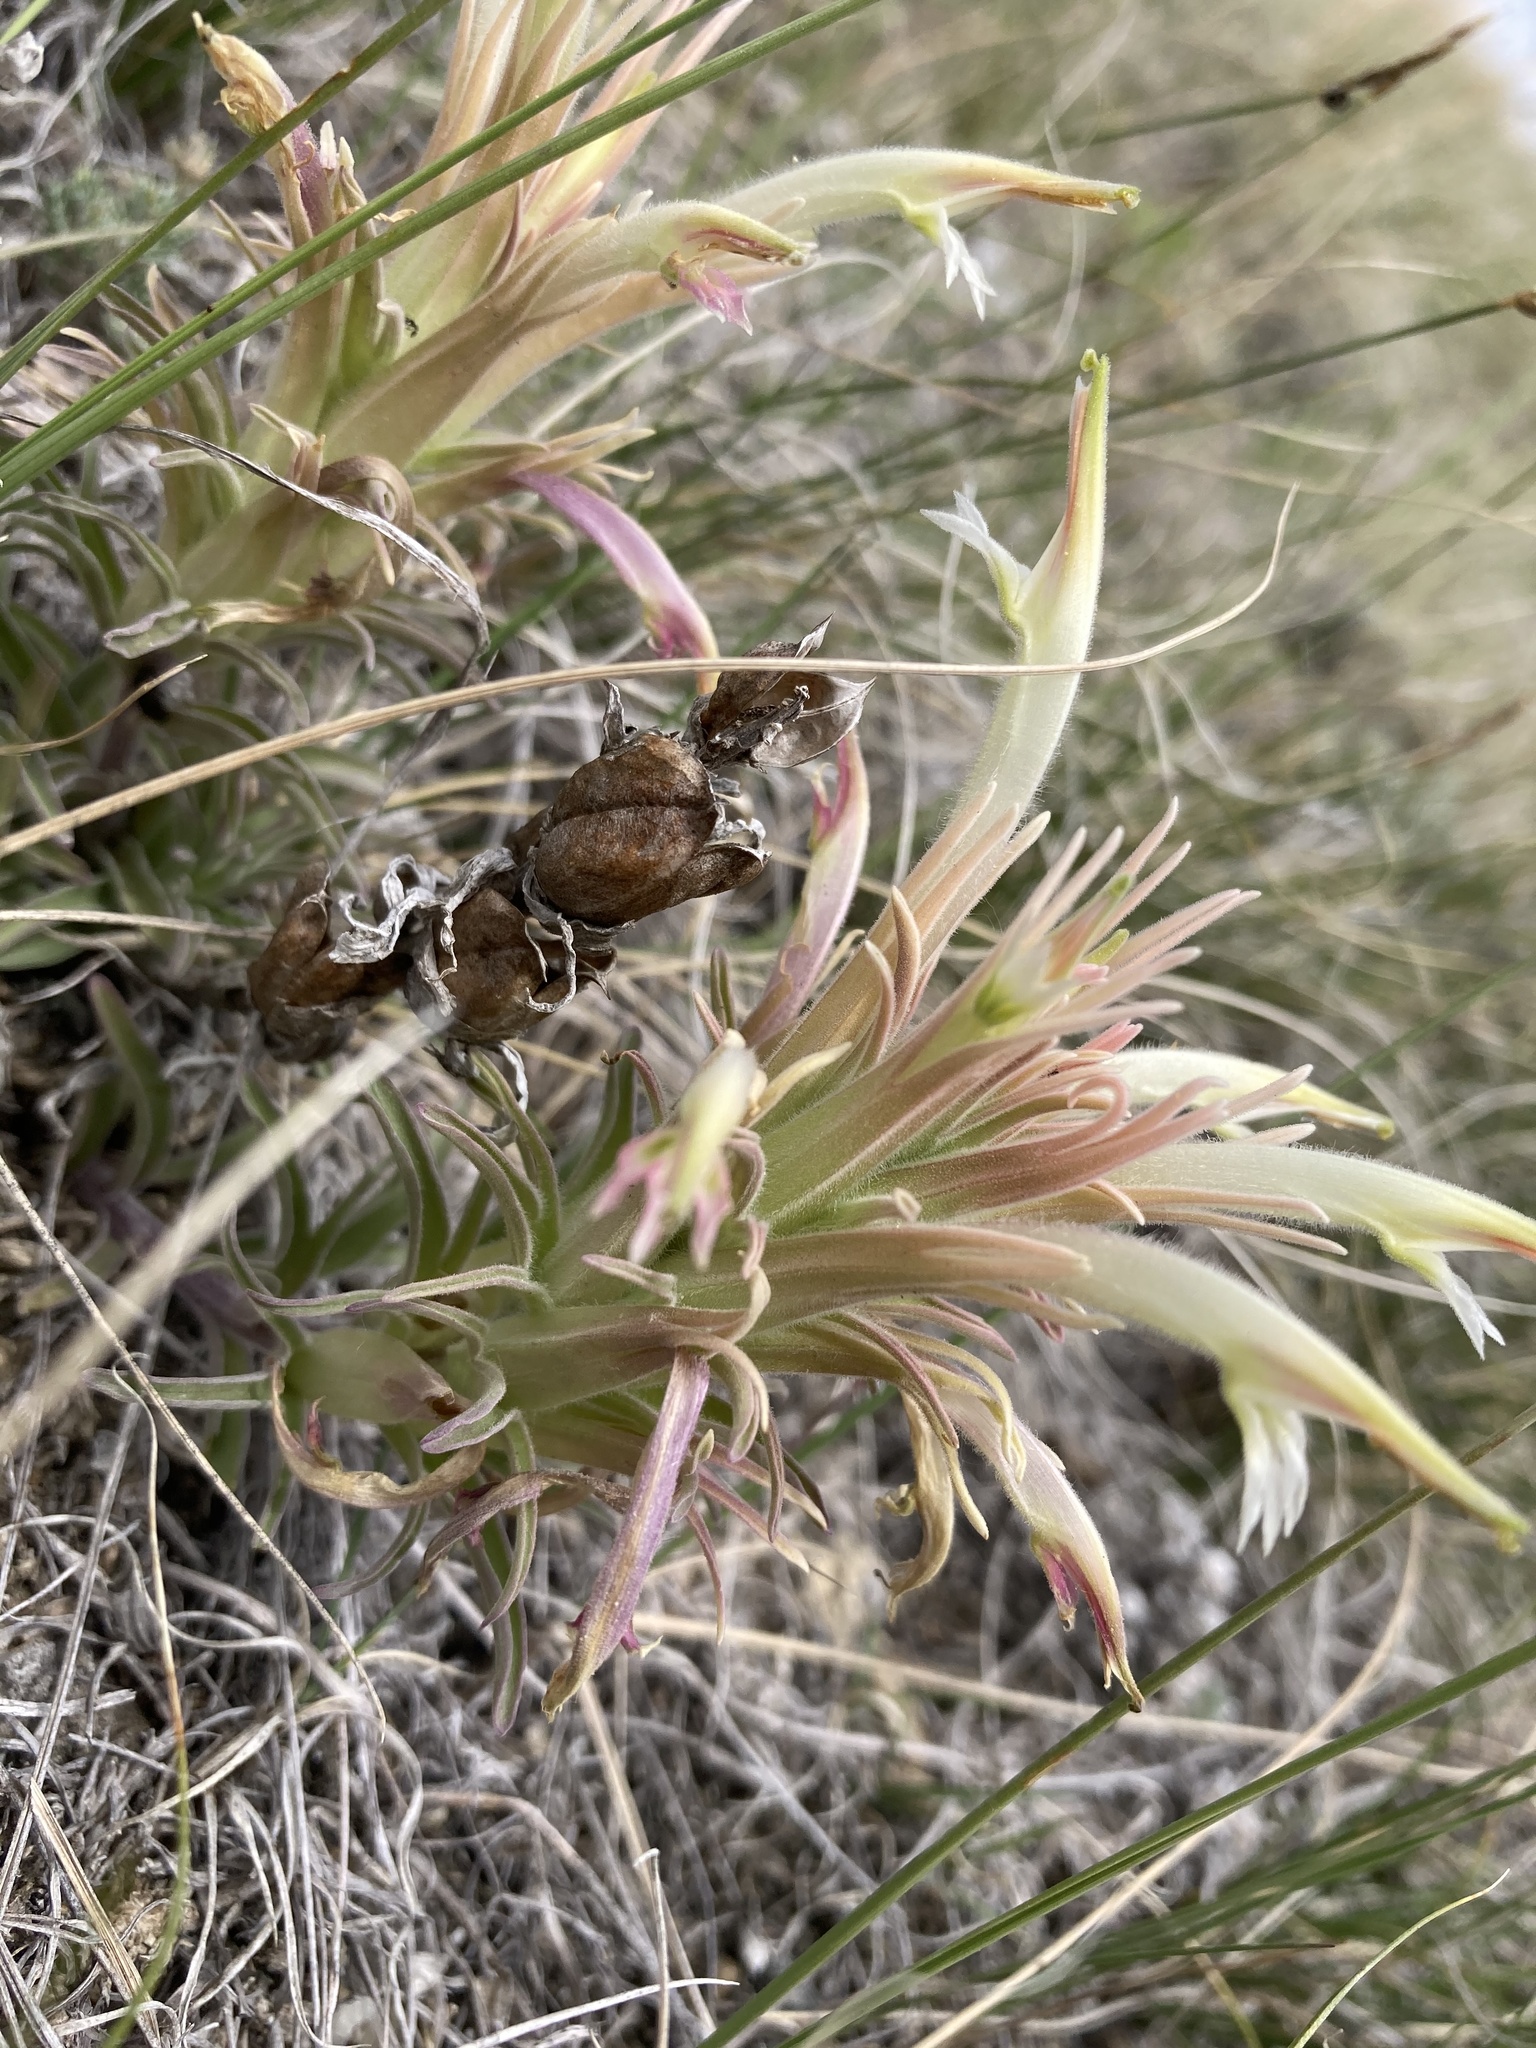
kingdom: Plantae
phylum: Tracheophyta
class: Magnoliopsida
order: Lamiales
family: Orobanchaceae
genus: Castilleja
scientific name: Castilleja sessiliflora
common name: Downy paintbrush
